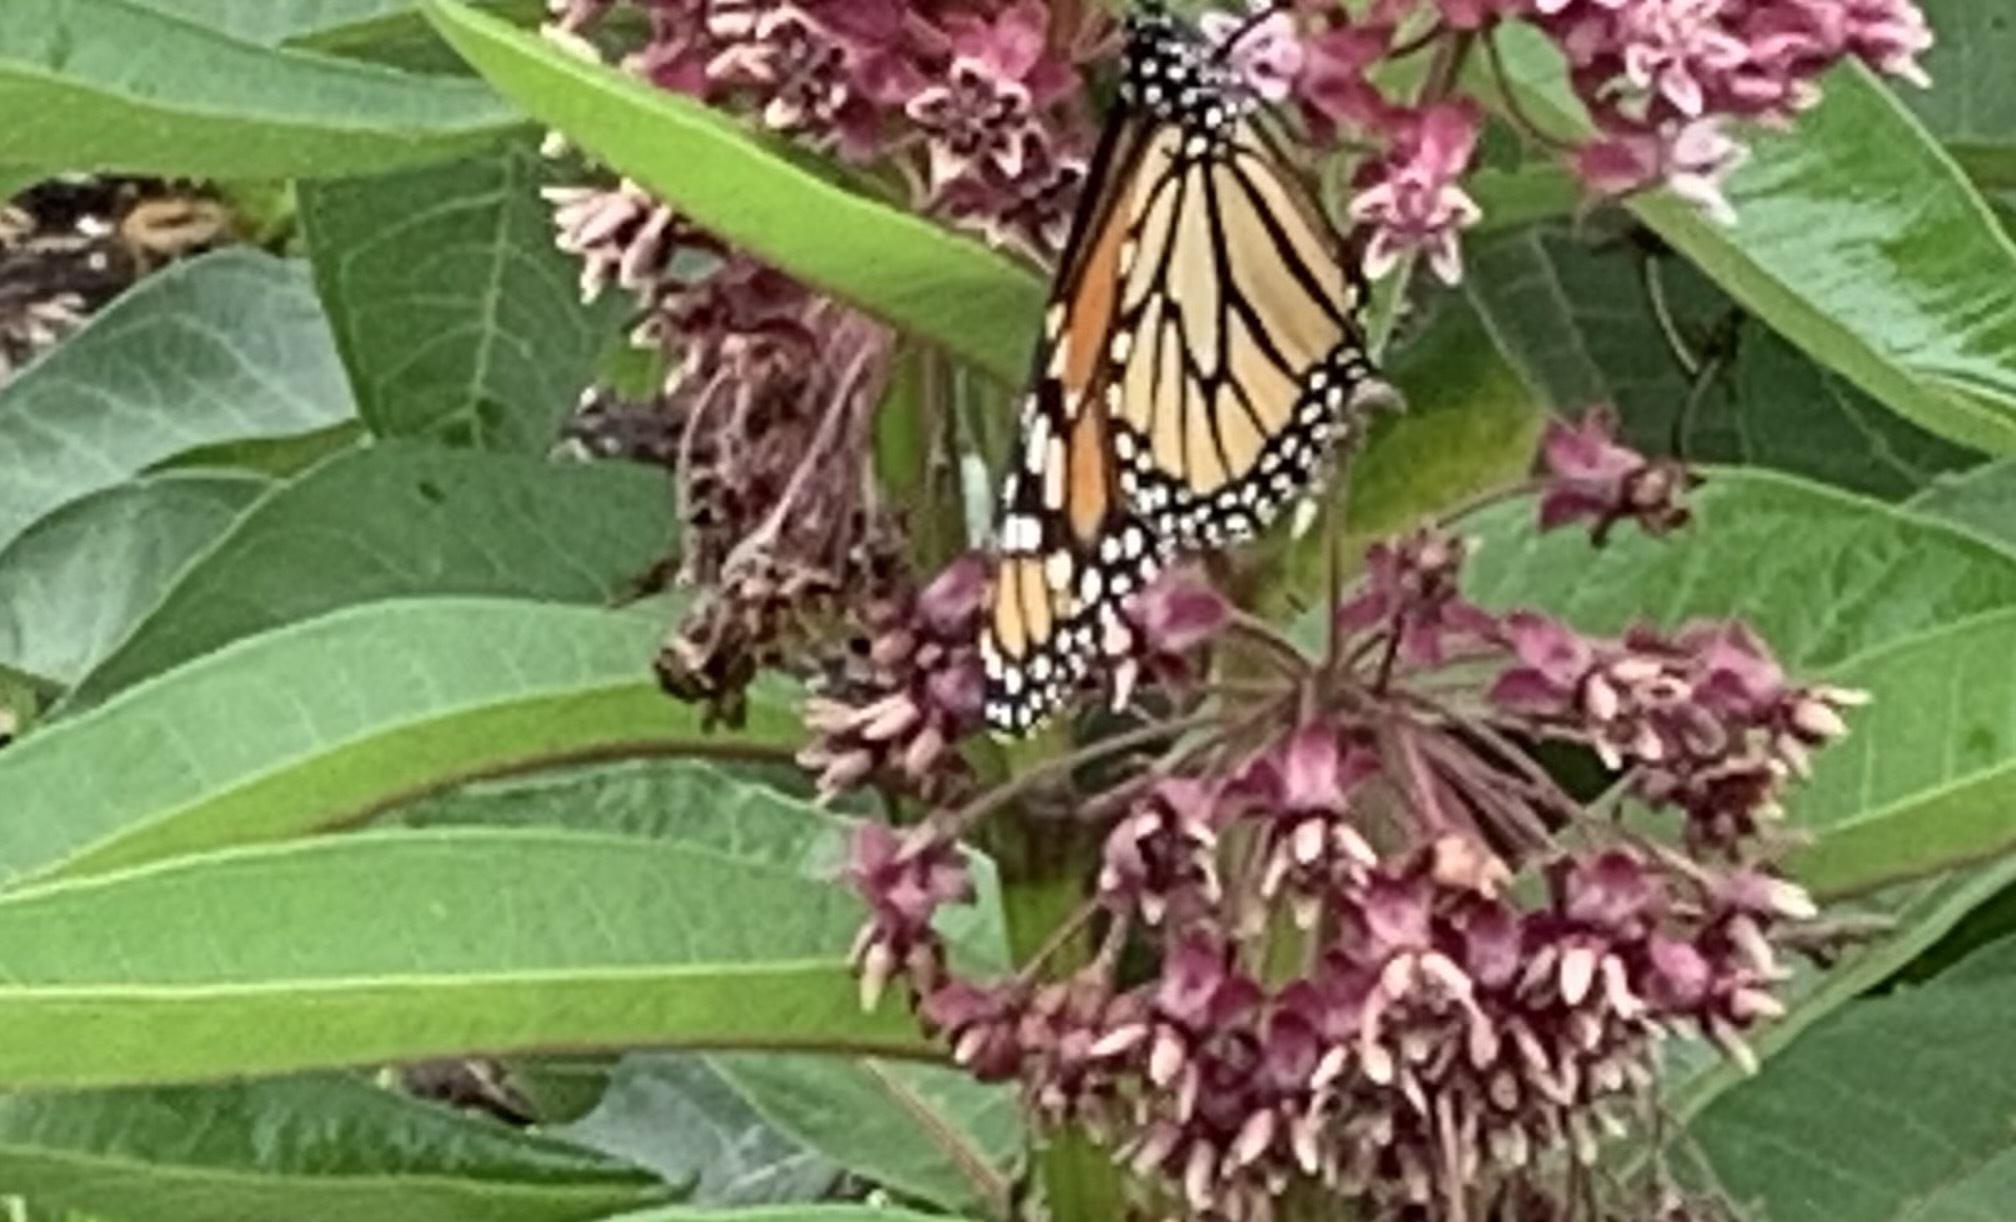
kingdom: Animalia
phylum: Arthropoda
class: Insecta
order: Lepidoptera
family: Nymphalidae
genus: Danaus
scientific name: Danaus plexippus
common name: Monarch
